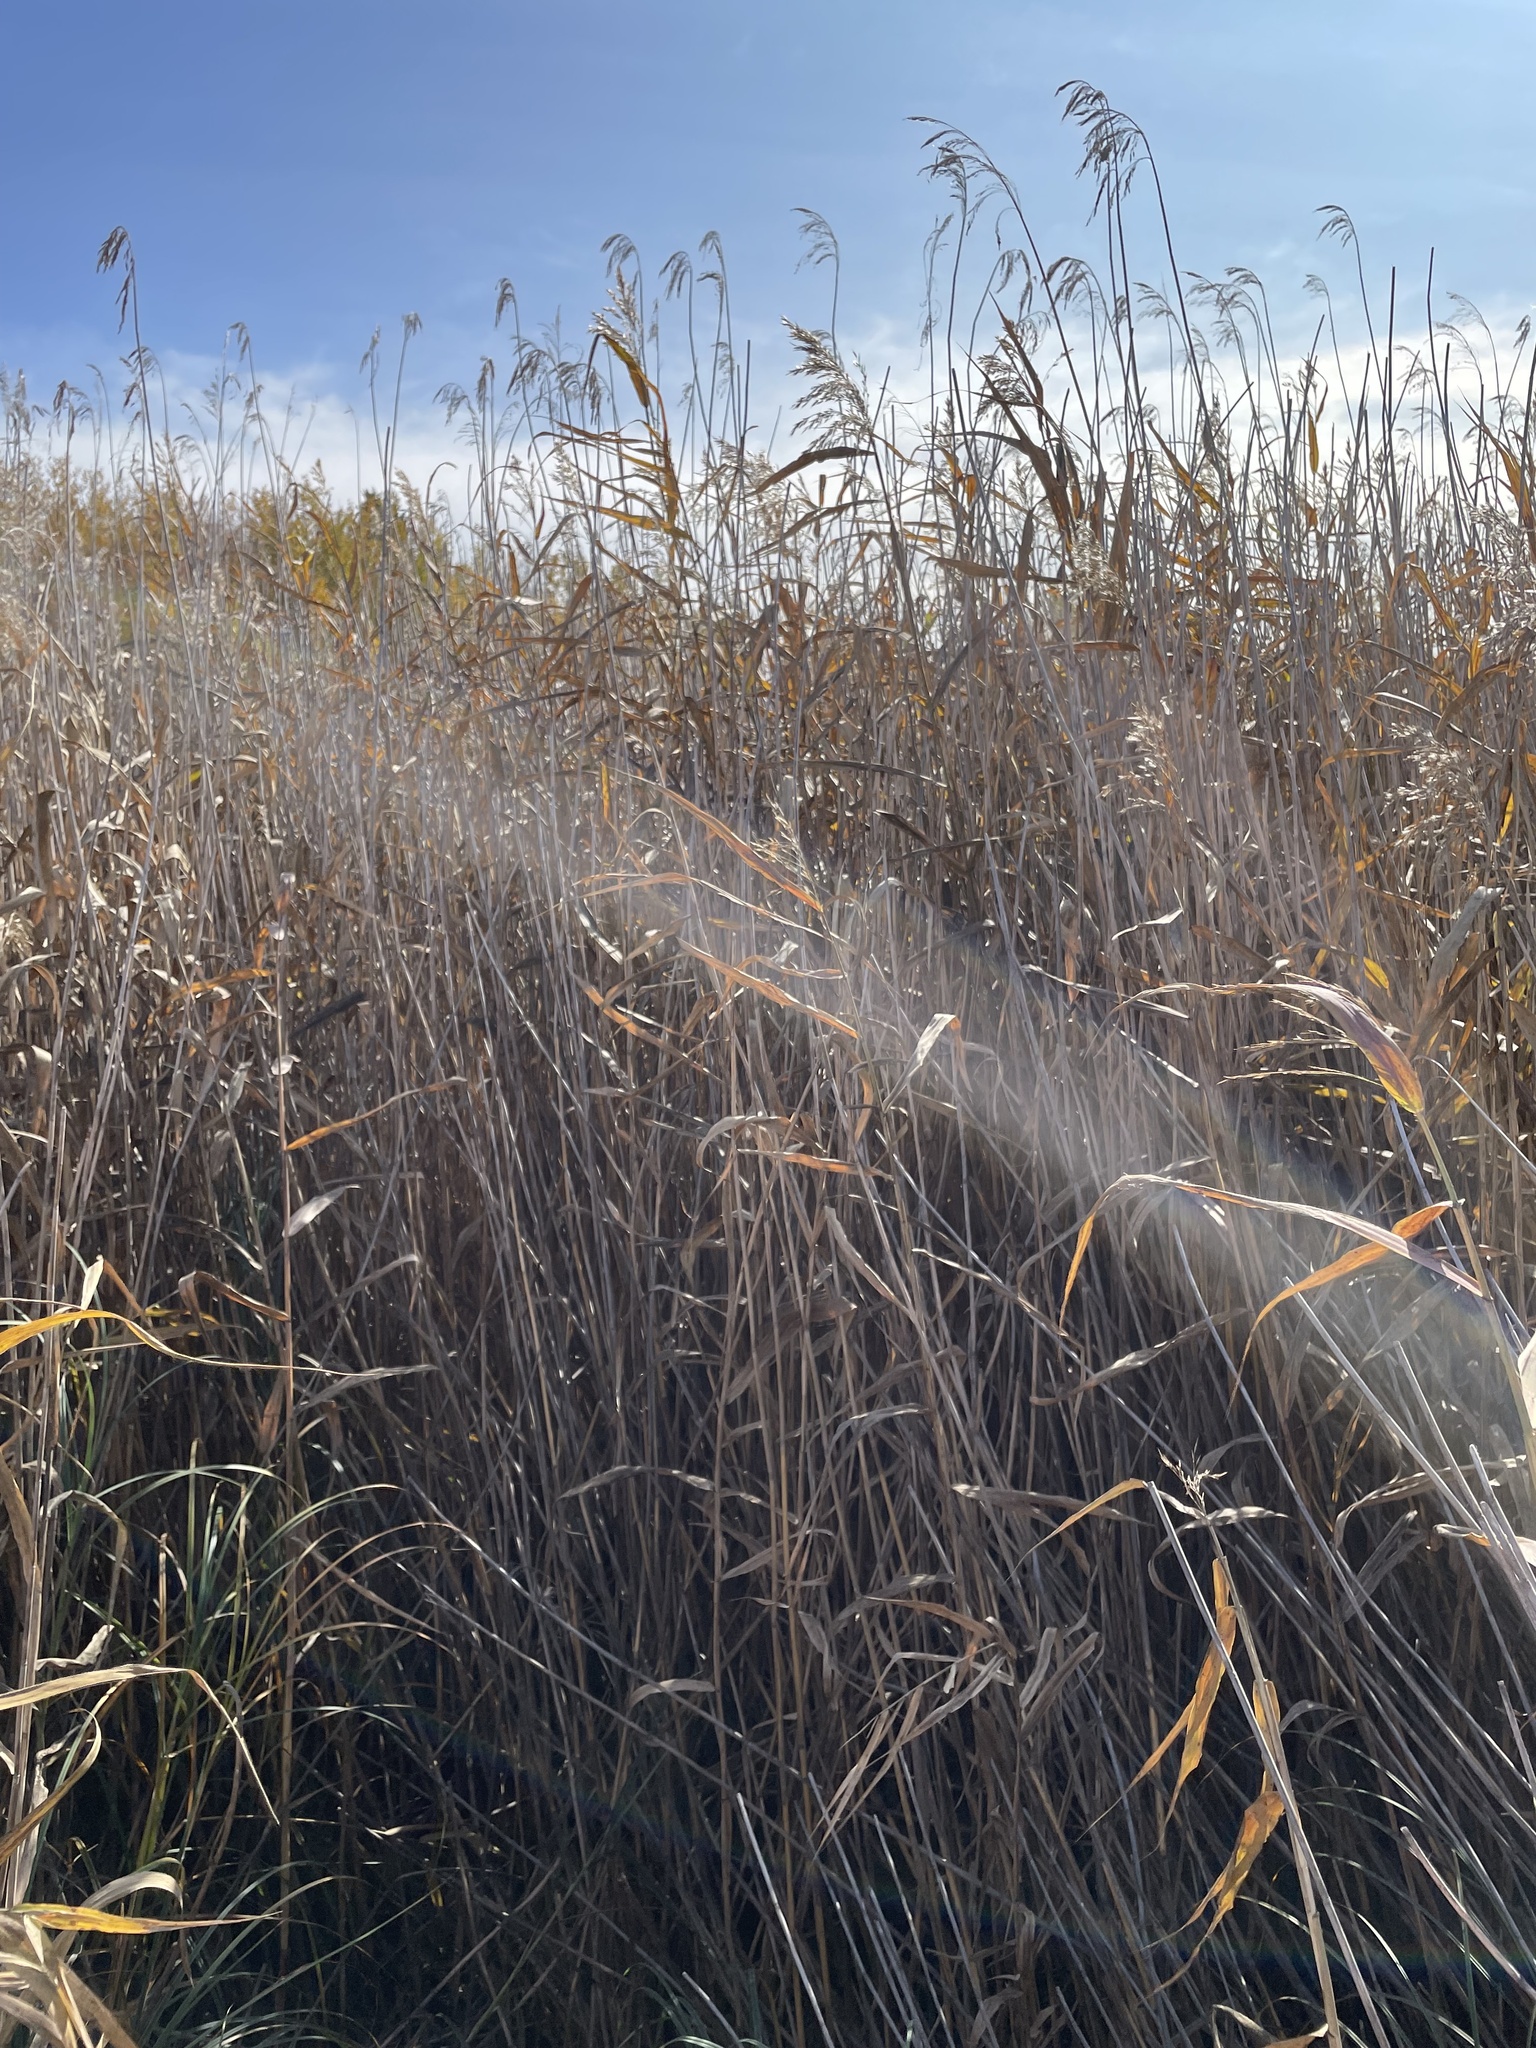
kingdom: Plantae
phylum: Tracheophyta
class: Liliopsida
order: Poales
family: Poaceae
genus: Phragmites
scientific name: Phragmites australis
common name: Common reed
